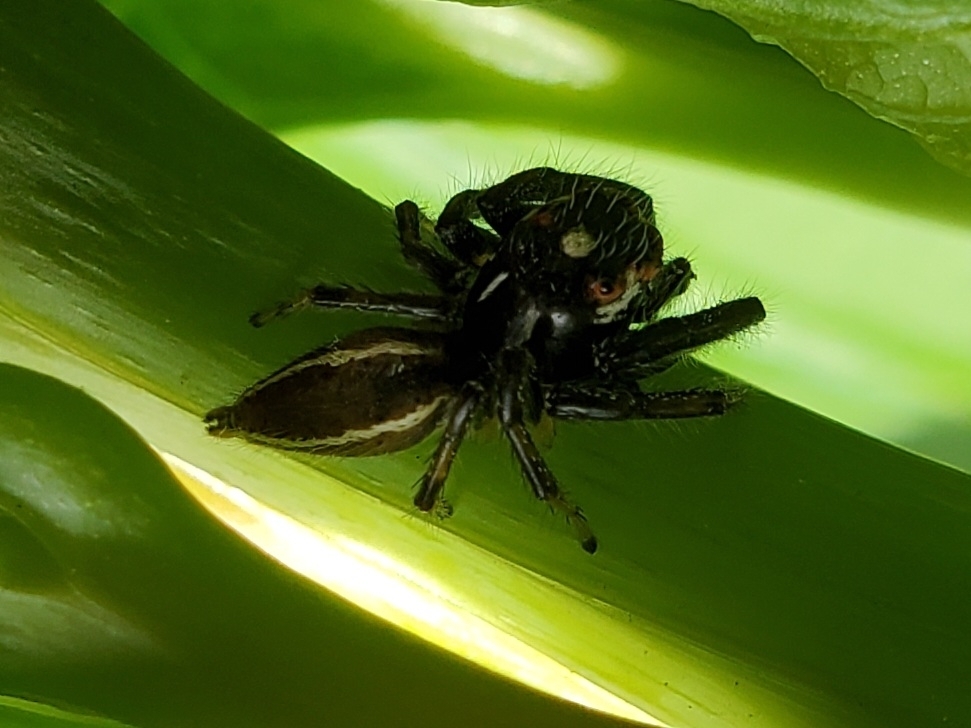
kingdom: Animalia
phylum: Arthropoda
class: Arachnida
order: Araneae
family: Salticidae
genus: Colonus
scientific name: Colonus sylvanus
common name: Jumping spiders
